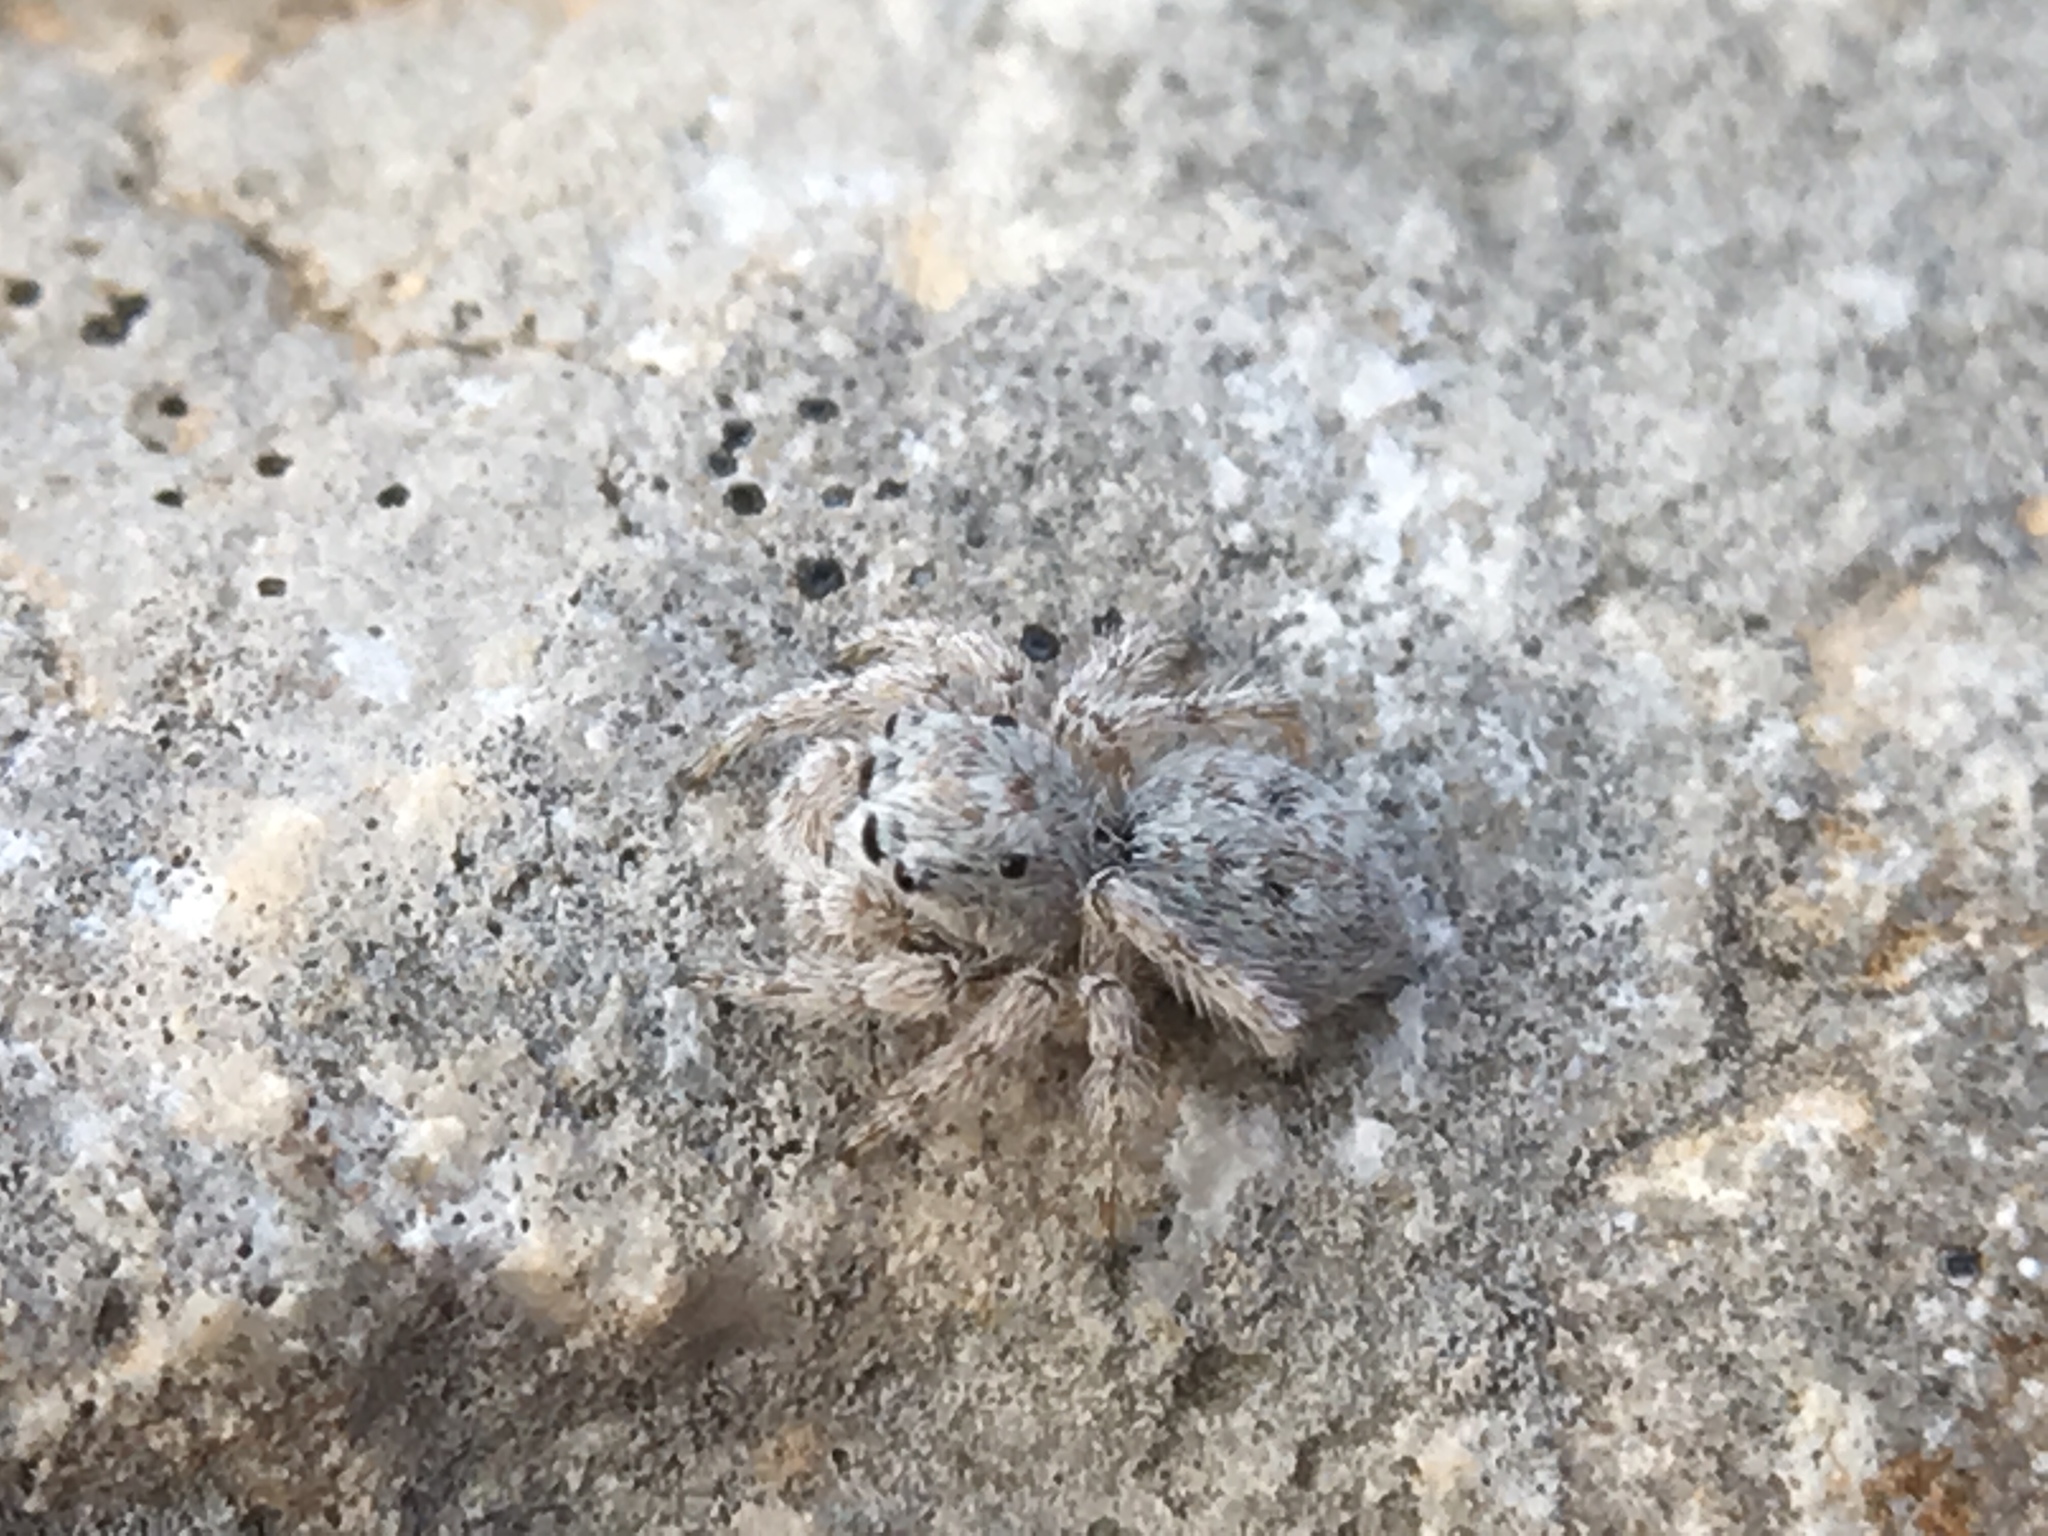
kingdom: Animalia
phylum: Arthropoda
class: Arachnida
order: Araneae
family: Salticidae
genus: Attulus
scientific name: Attulus distinguendus
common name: Distinguished jumper
